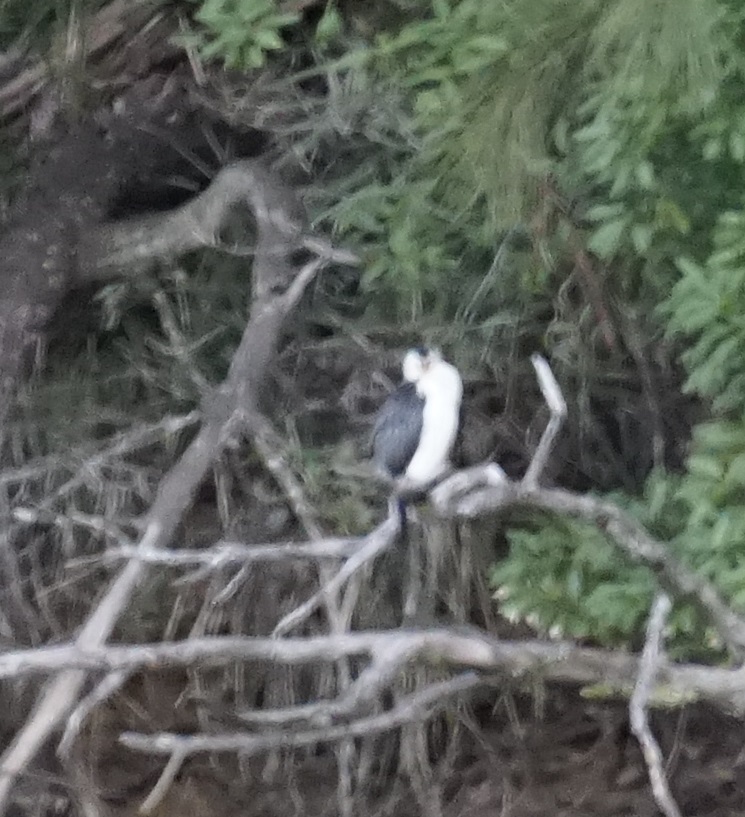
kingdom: Animalia
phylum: Chordata
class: Aves
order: Suliformes
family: Phalacrocoracidae
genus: Microcarbo
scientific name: Microcarbo melanoleucos
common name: Little pied cormorant
